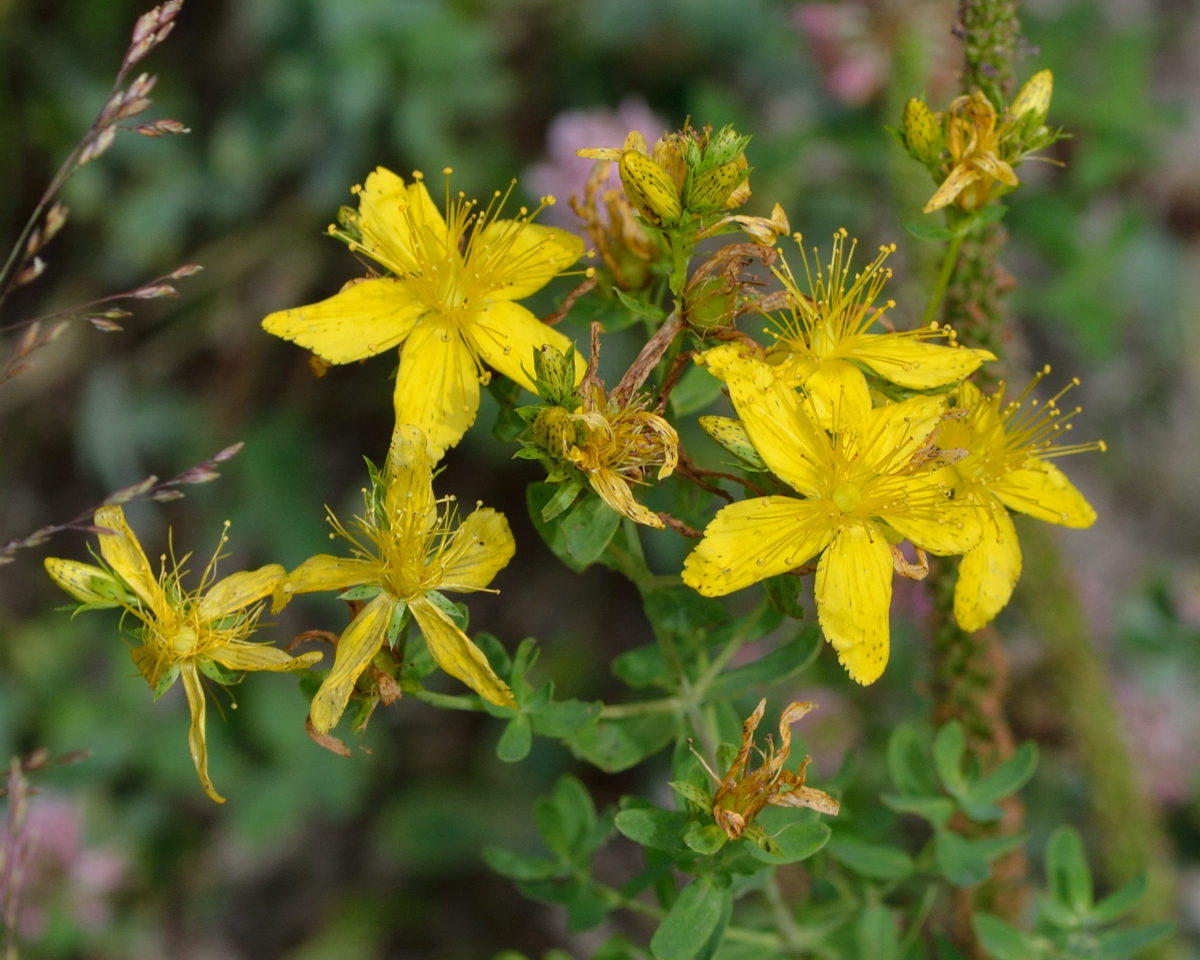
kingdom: Plantae
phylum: Tracheophyta
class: Magnoliopsida
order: Malpighiales
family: Hypericaceae
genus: Hypericum
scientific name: Hypericum perforatum
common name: Common st. johnswort
